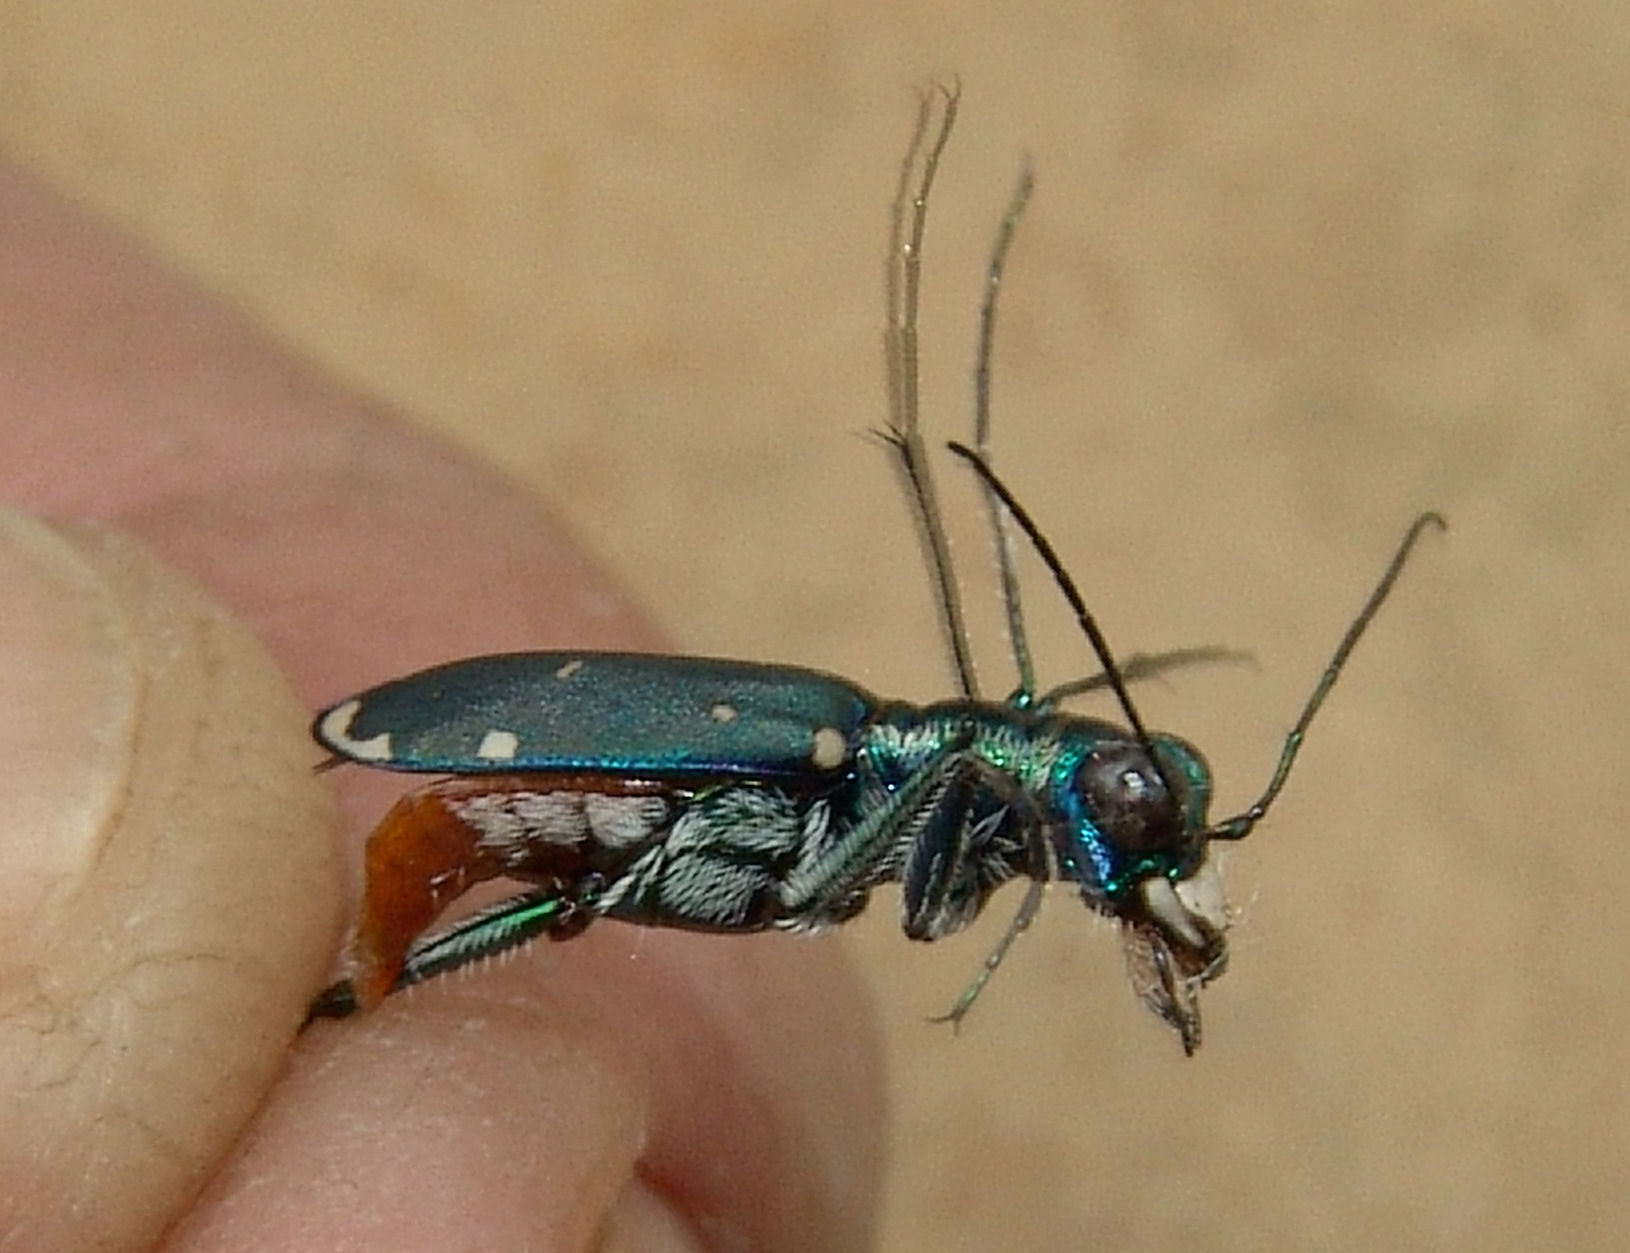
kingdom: Animalia
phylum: Arthropoda
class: Insecta
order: Coleoptera
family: Carabidae
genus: Cicindela
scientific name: Cicindela rufiventris
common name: Eastern red-bellied tiger beetle
